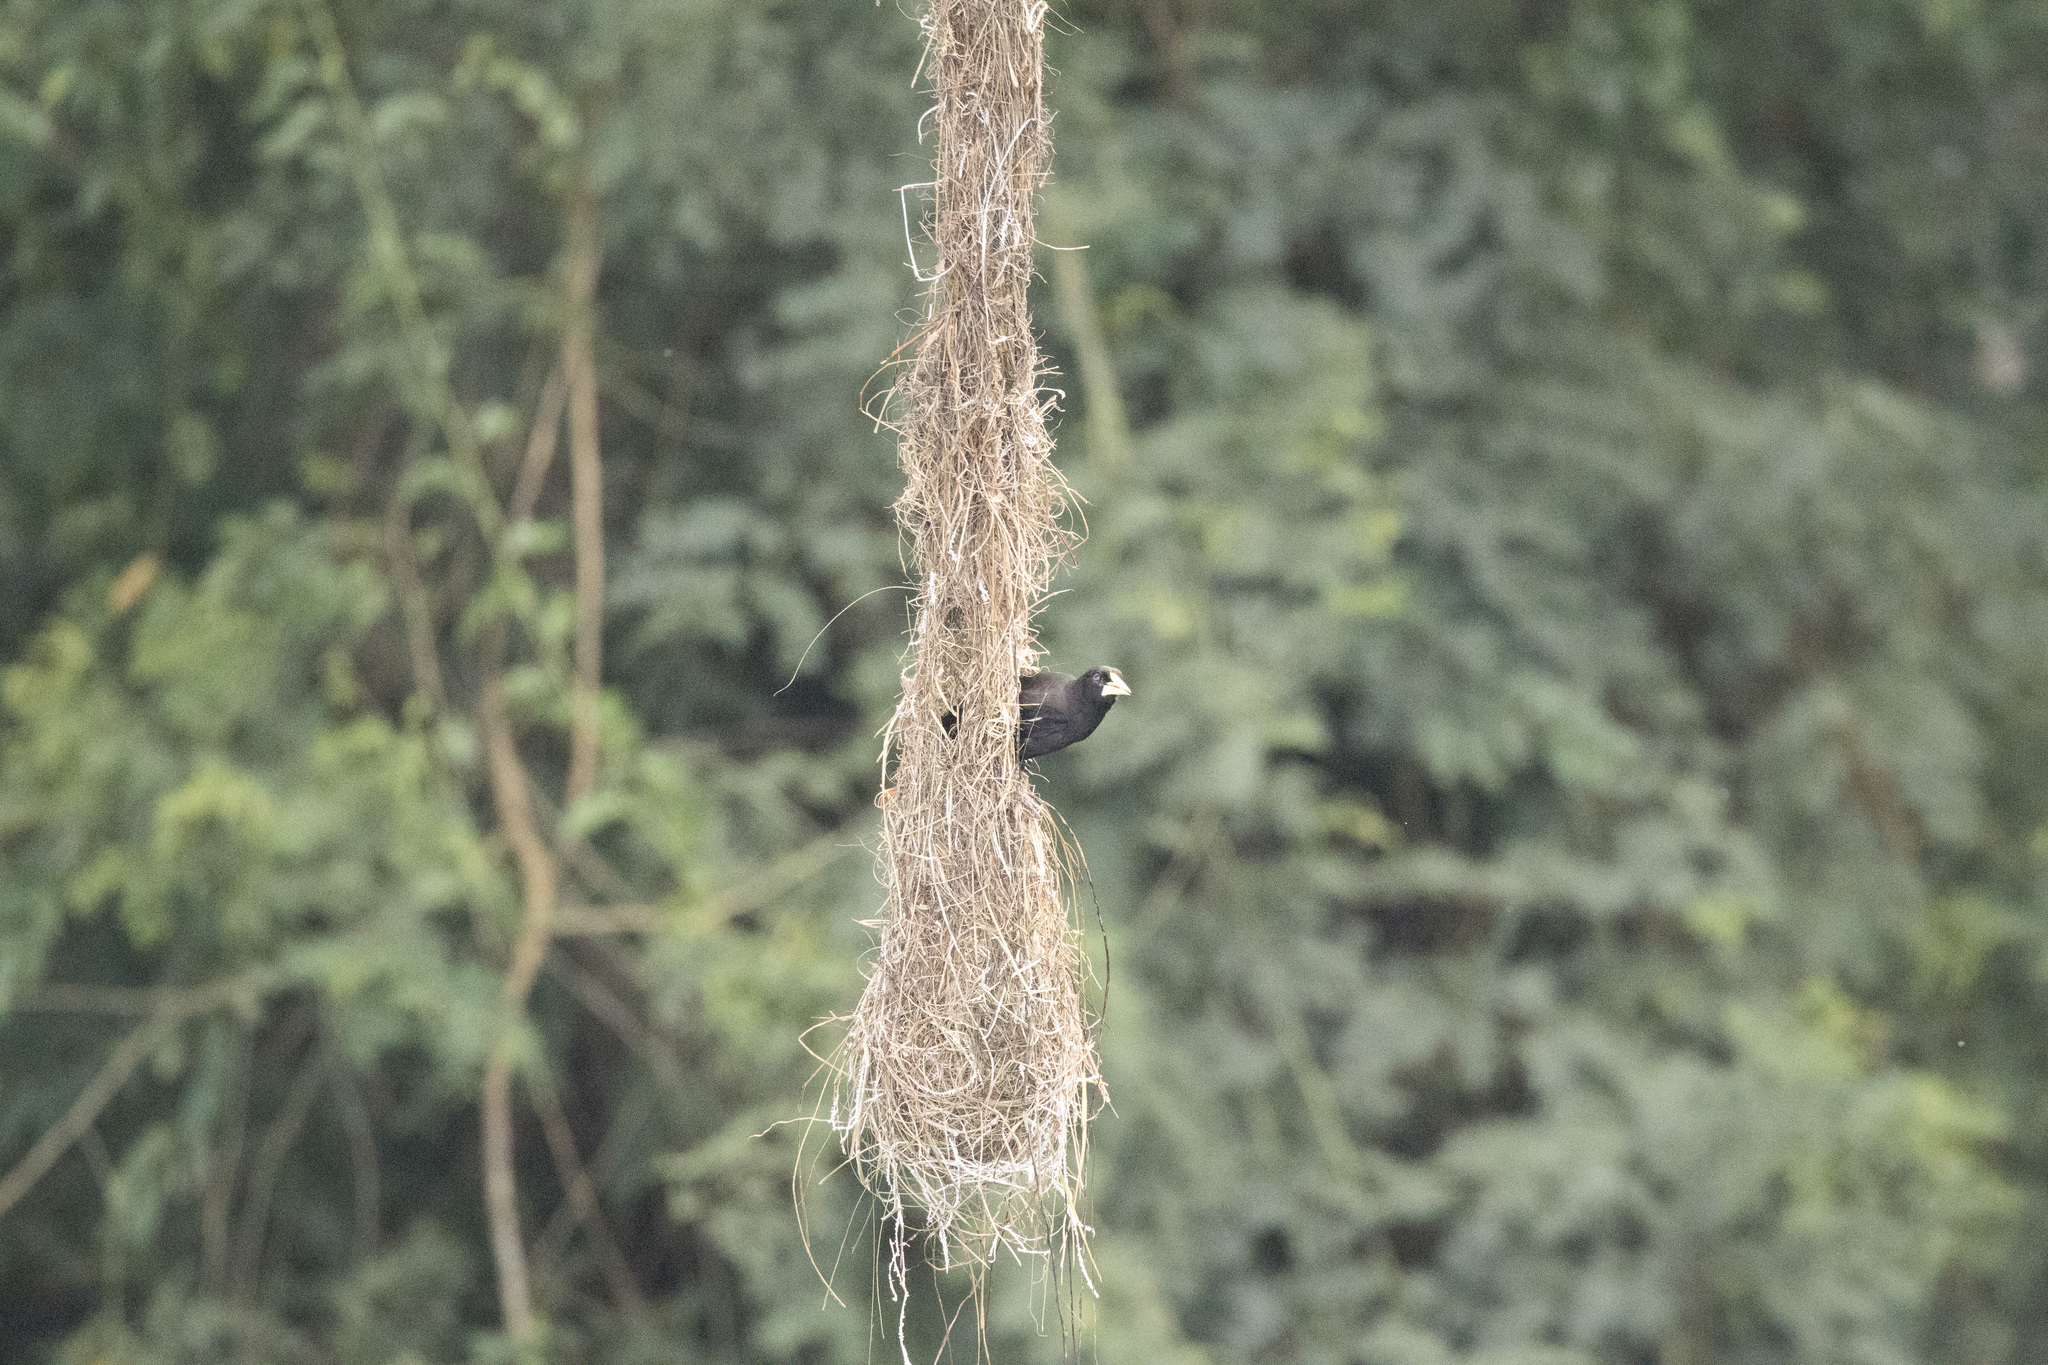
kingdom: Animalia
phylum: Chordata
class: Aves
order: Passeriformes
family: Icteridae
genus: Psarocolius
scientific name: Psarocolius decumanus
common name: Crested oropendola
